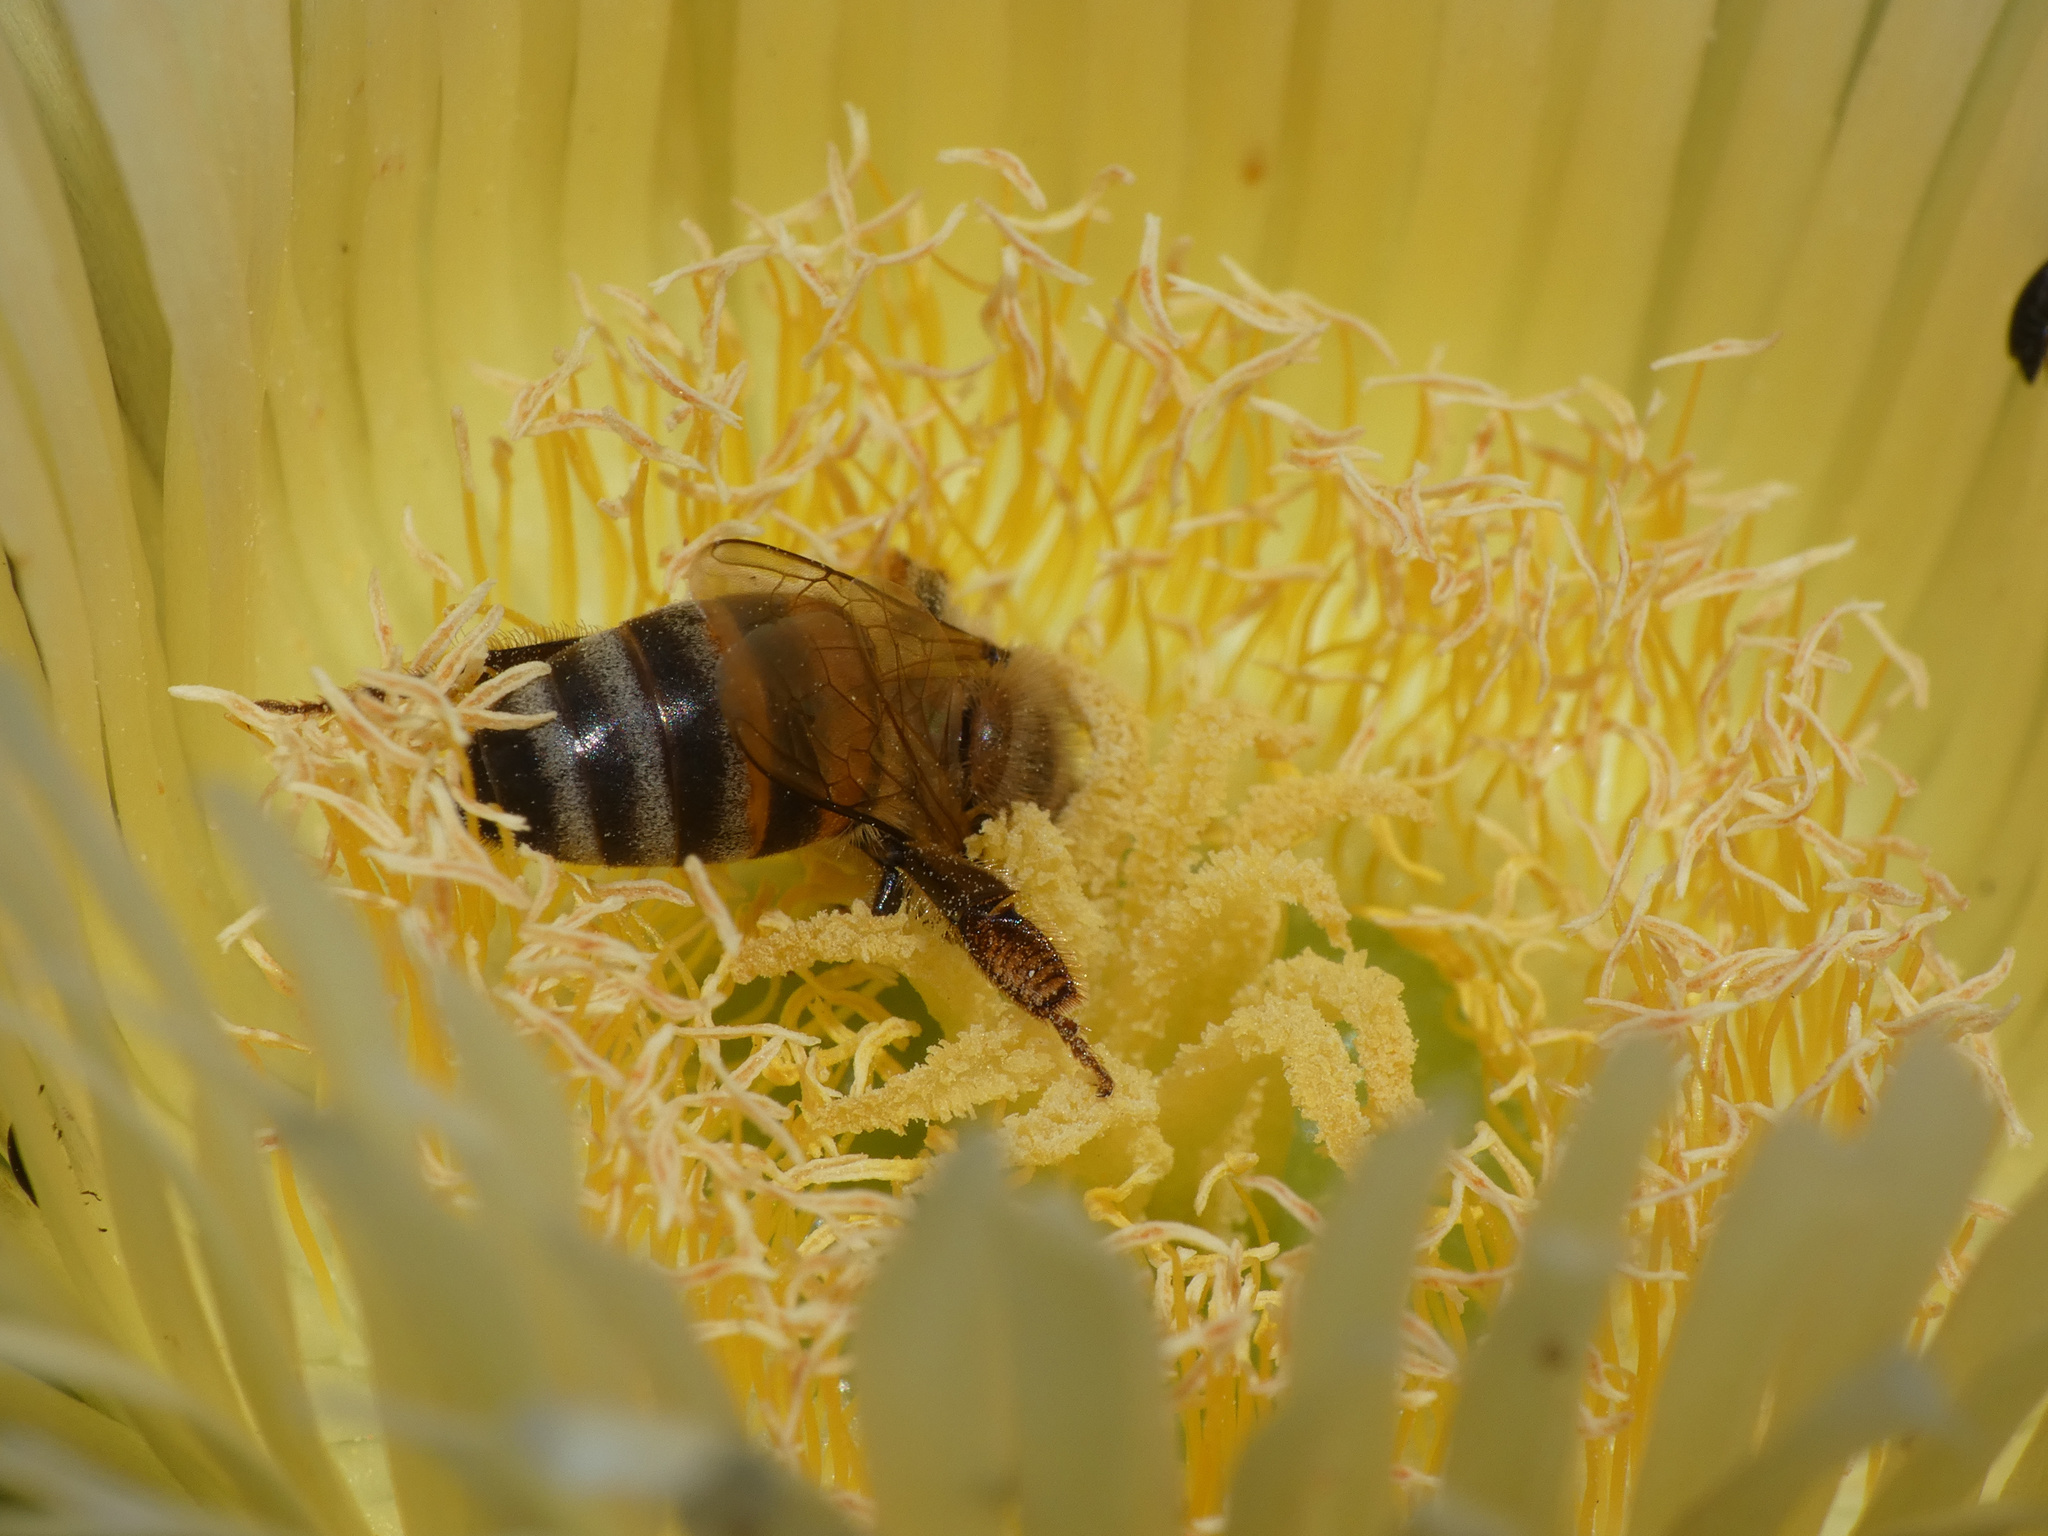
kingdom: Animalia
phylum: Arthropoda
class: Insecta
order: Hymenoptera
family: Apidae
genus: Apis
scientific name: Apis mellifera
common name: Honey bee
